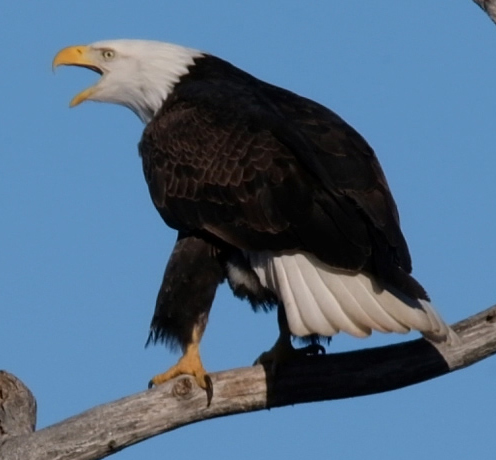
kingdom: Animalia
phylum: Chordata
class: Aves
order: Accipitriformes
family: Accipitridae
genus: Haliaeetus
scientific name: Haliaeetus leucocephalus
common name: Bald eagle
